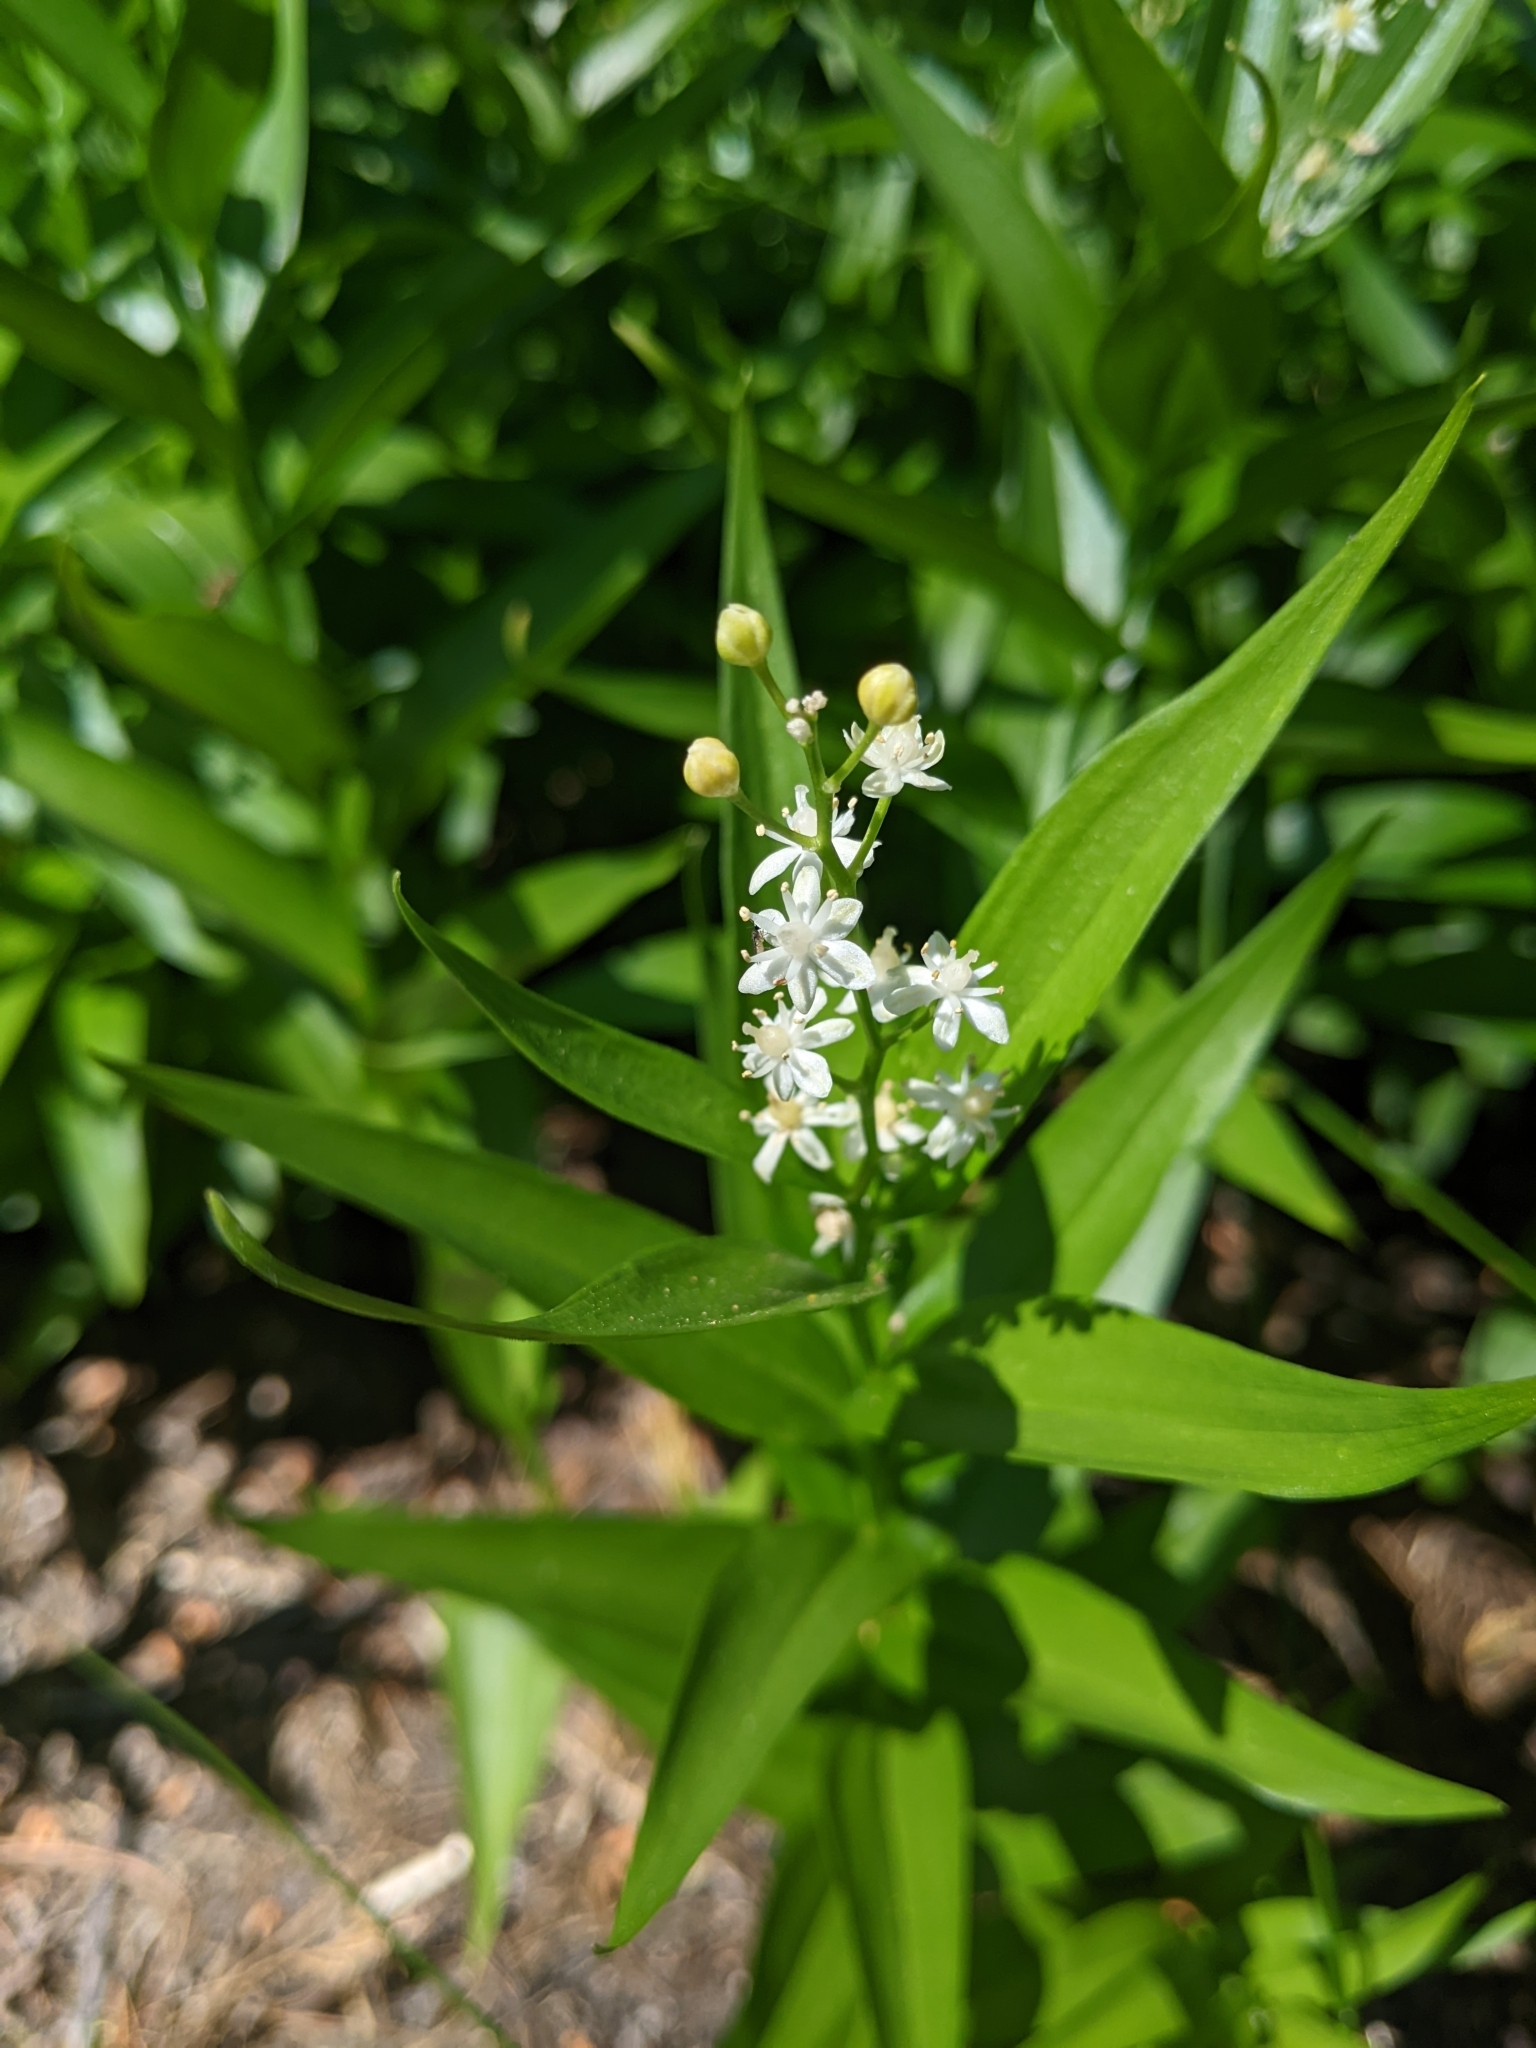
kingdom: Plantae
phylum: Tracheophyta
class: Liliopsida
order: Asparagales
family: Asparagaceae
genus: Maianthemum
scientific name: Maianthemum stellatum
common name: Little false solomon's seal
